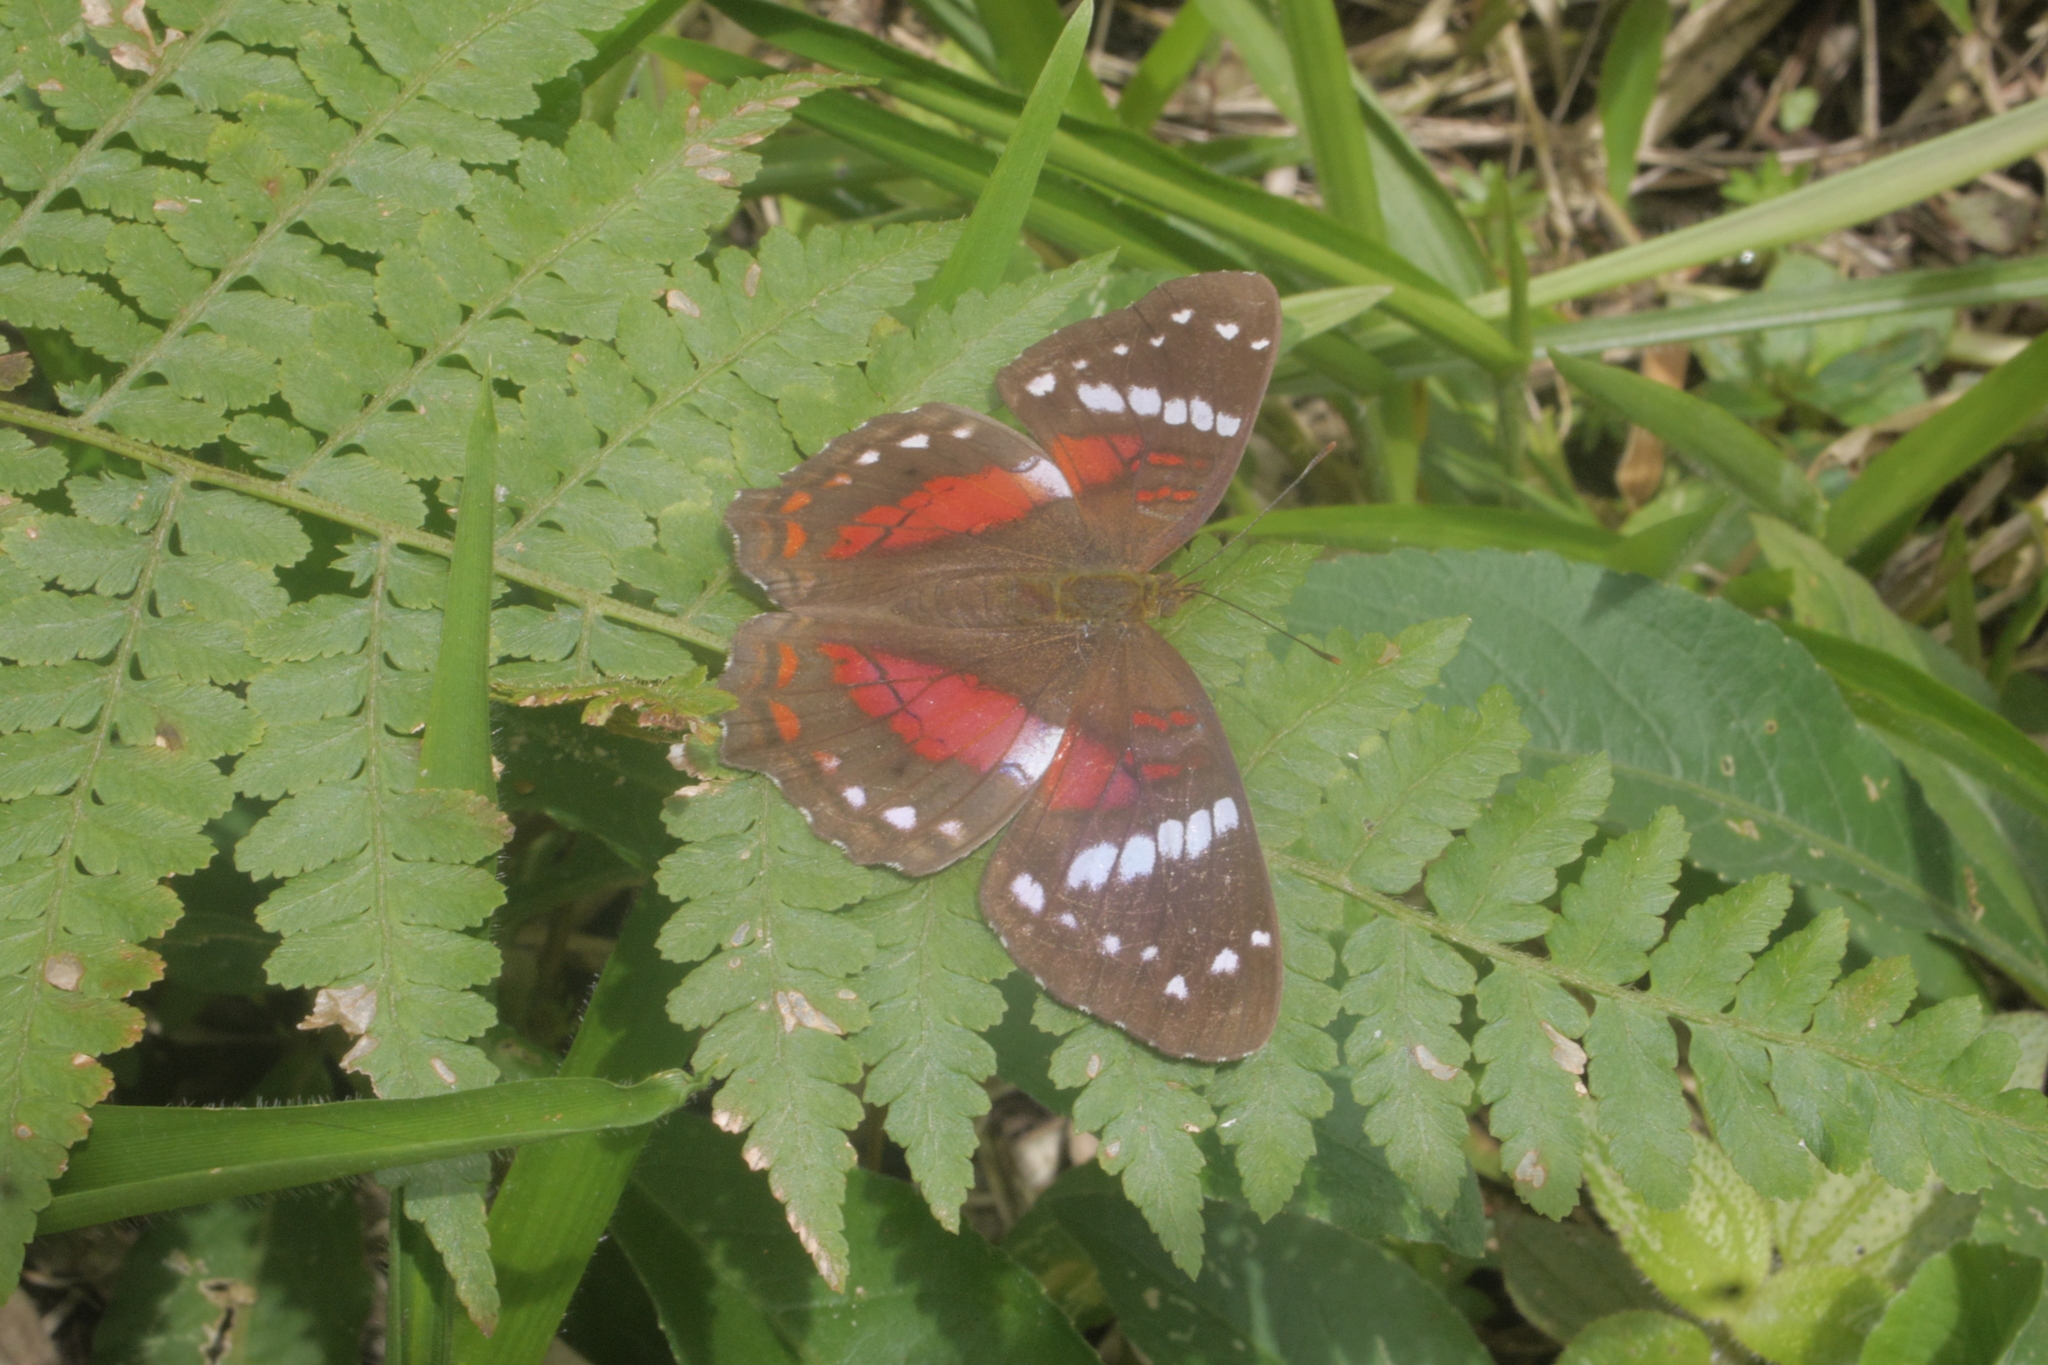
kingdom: Animalia
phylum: Arthropoda
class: Insecta
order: Lepidoptera
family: Nymphalidae
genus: Anartia
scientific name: Anartia amathea
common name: Red peacock
